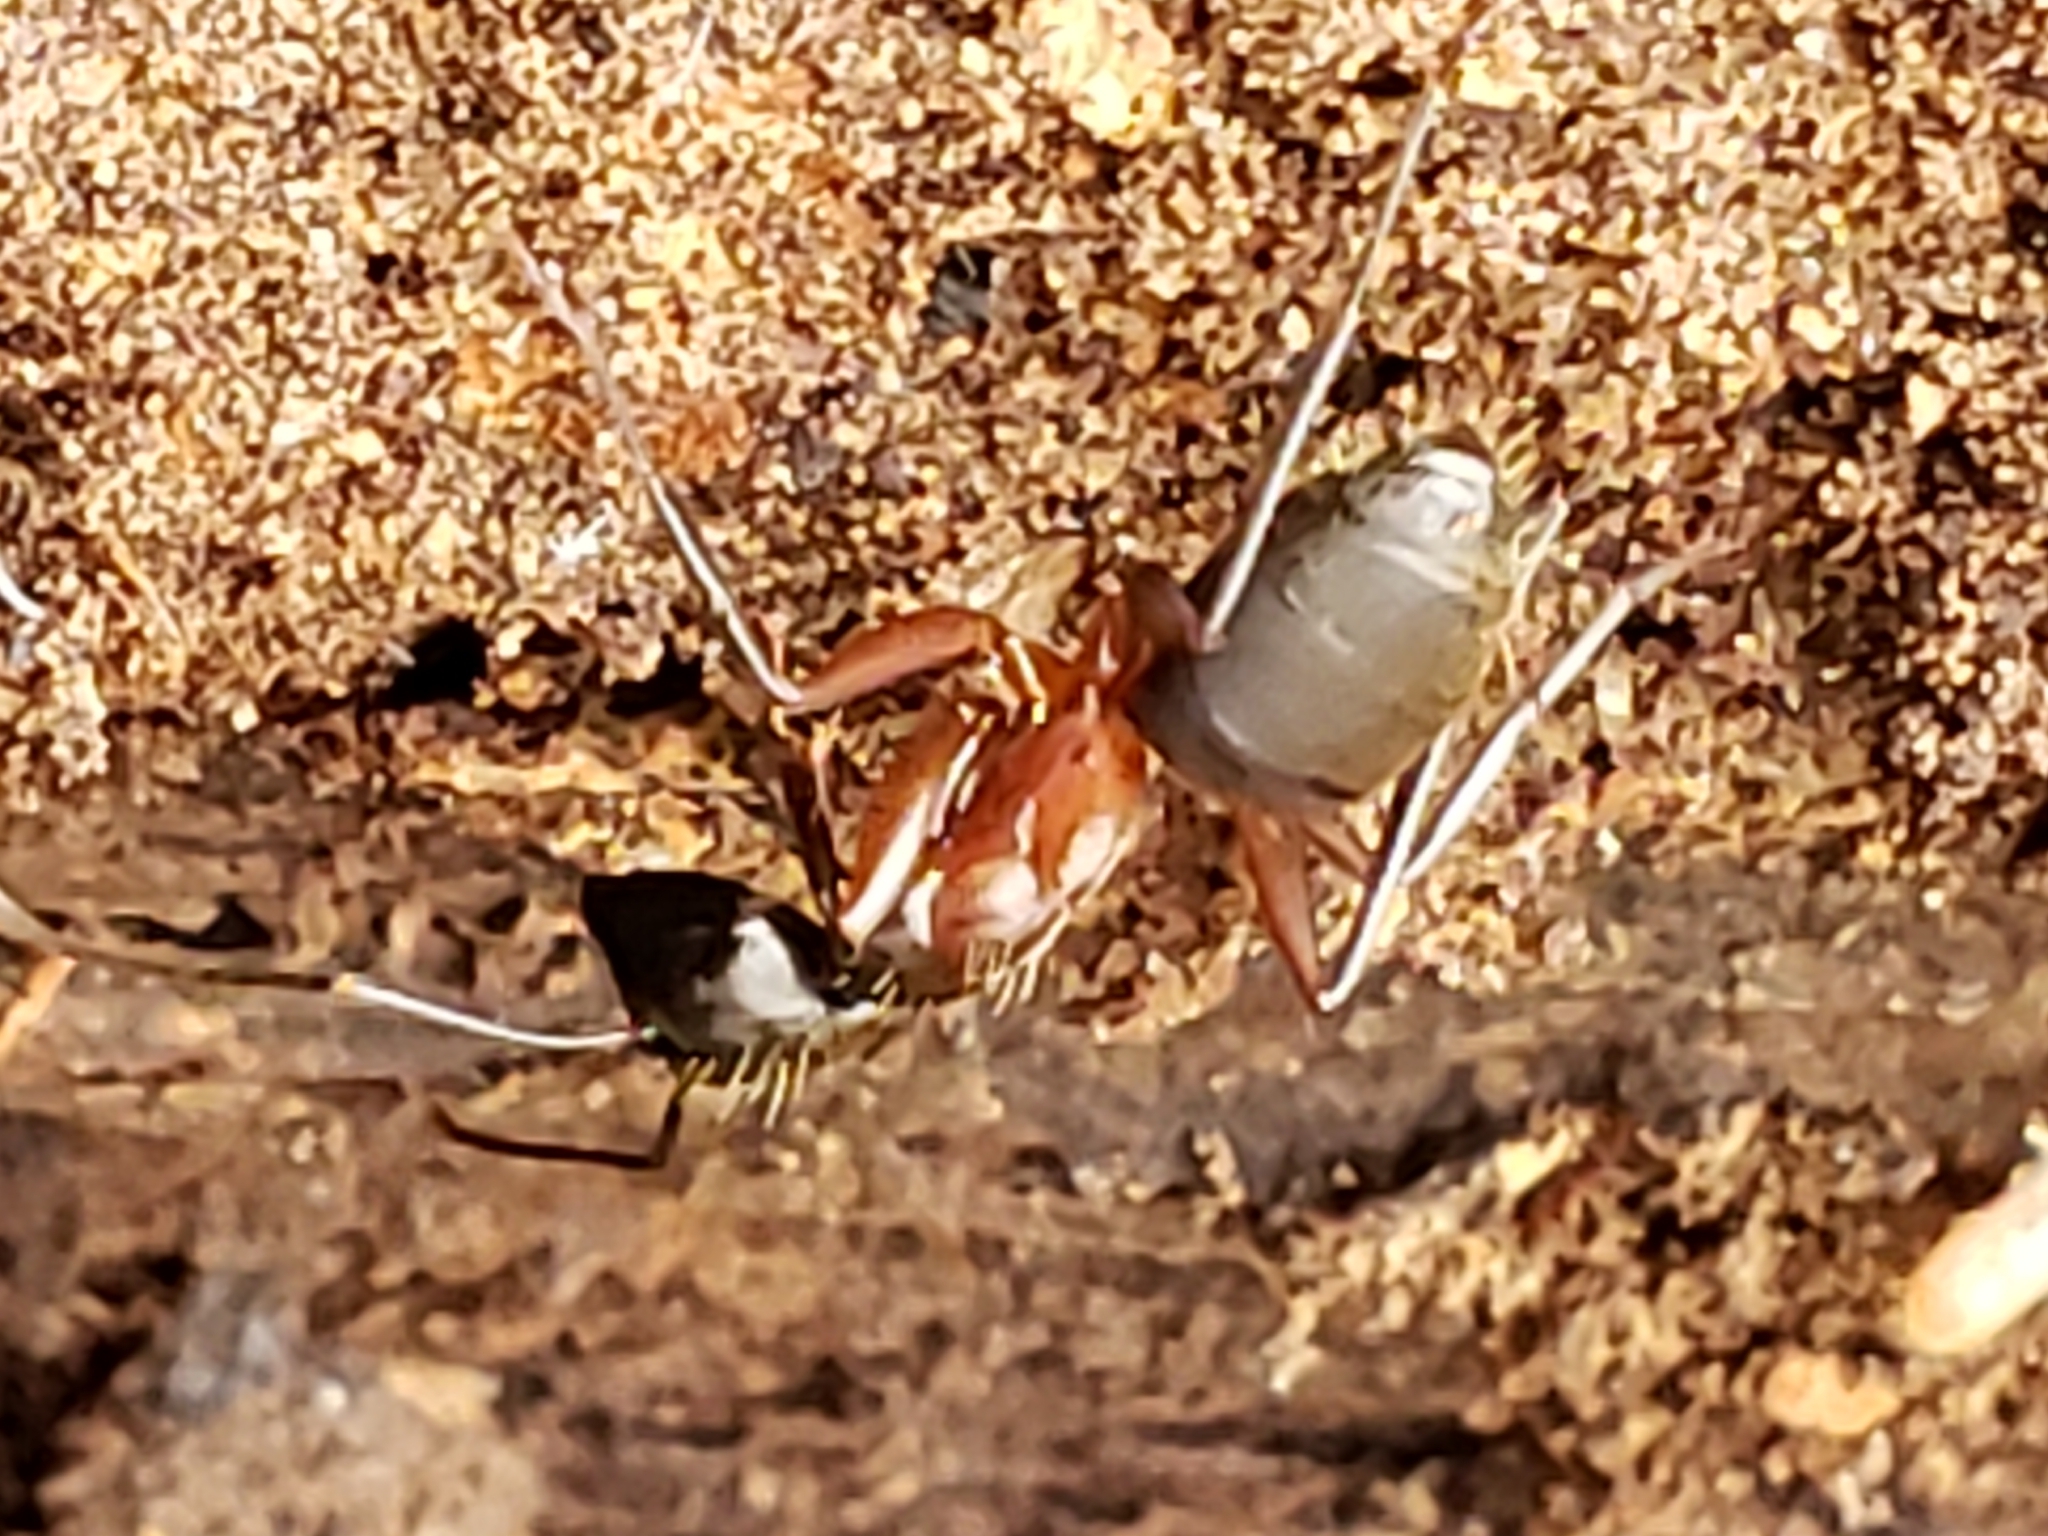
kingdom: Animalia
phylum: Arthropoda
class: Insecta
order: Hymenoptera
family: Formicidae
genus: Camponotus
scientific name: Camponotus chromaiodes
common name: Red carpenter ant
